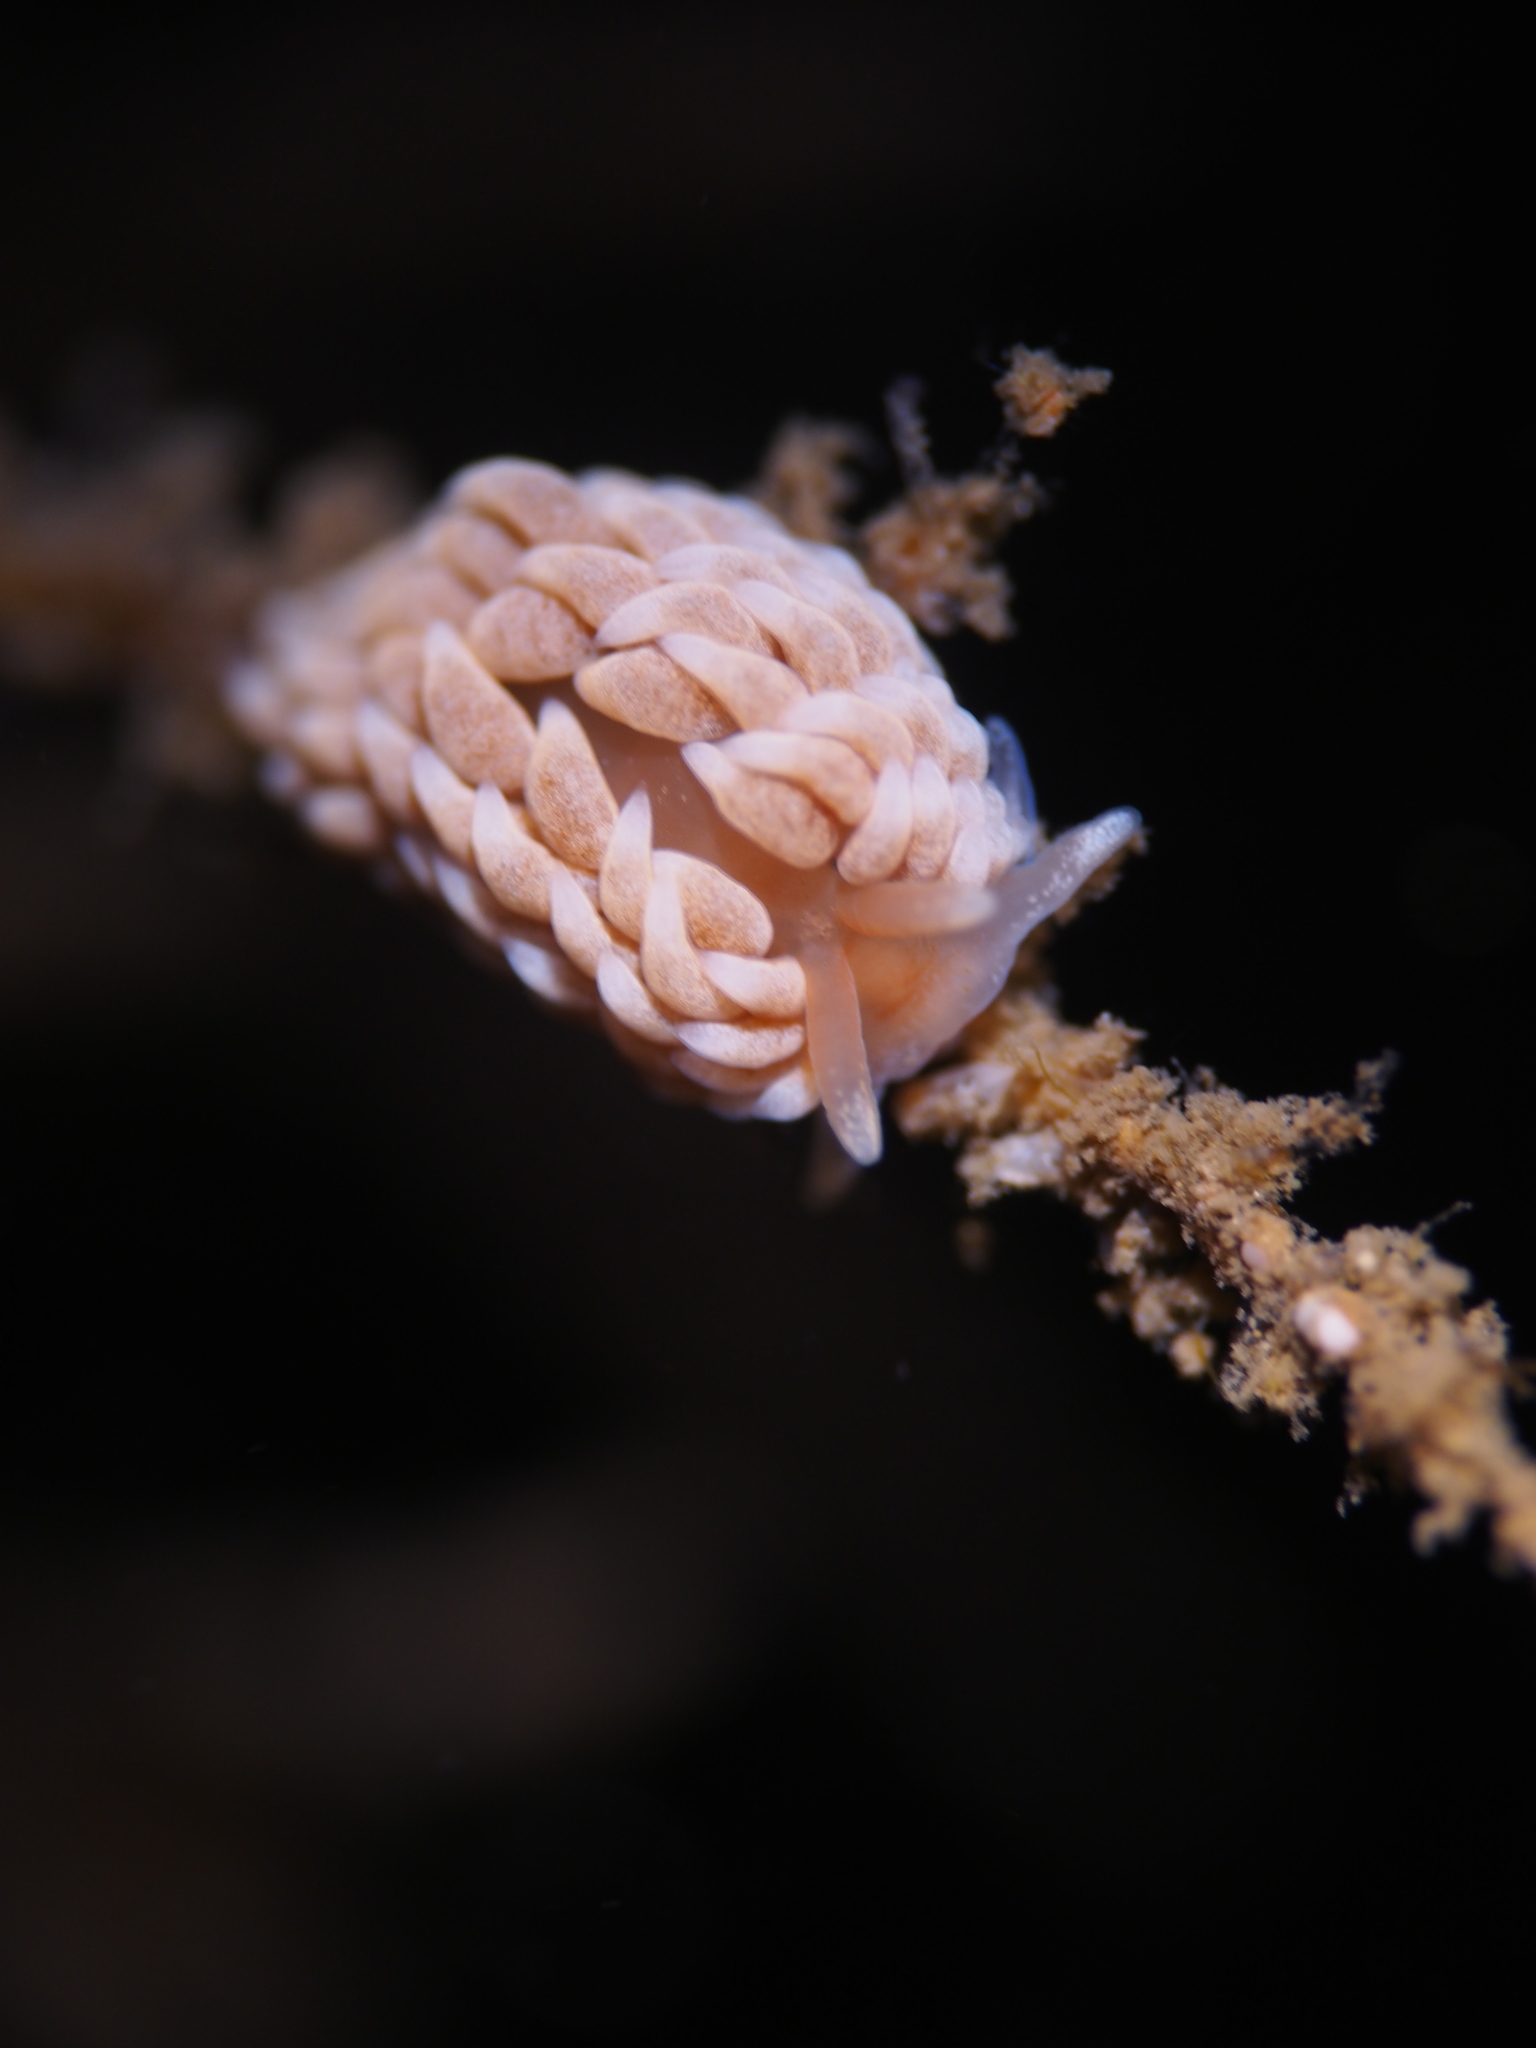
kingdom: Animalia
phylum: Mollusca
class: Gastropoda
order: Nudibranchia
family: Aeolidiidae
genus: Aeolidiella
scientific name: Aeolidiella glauca
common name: Orange-brown aeolid
